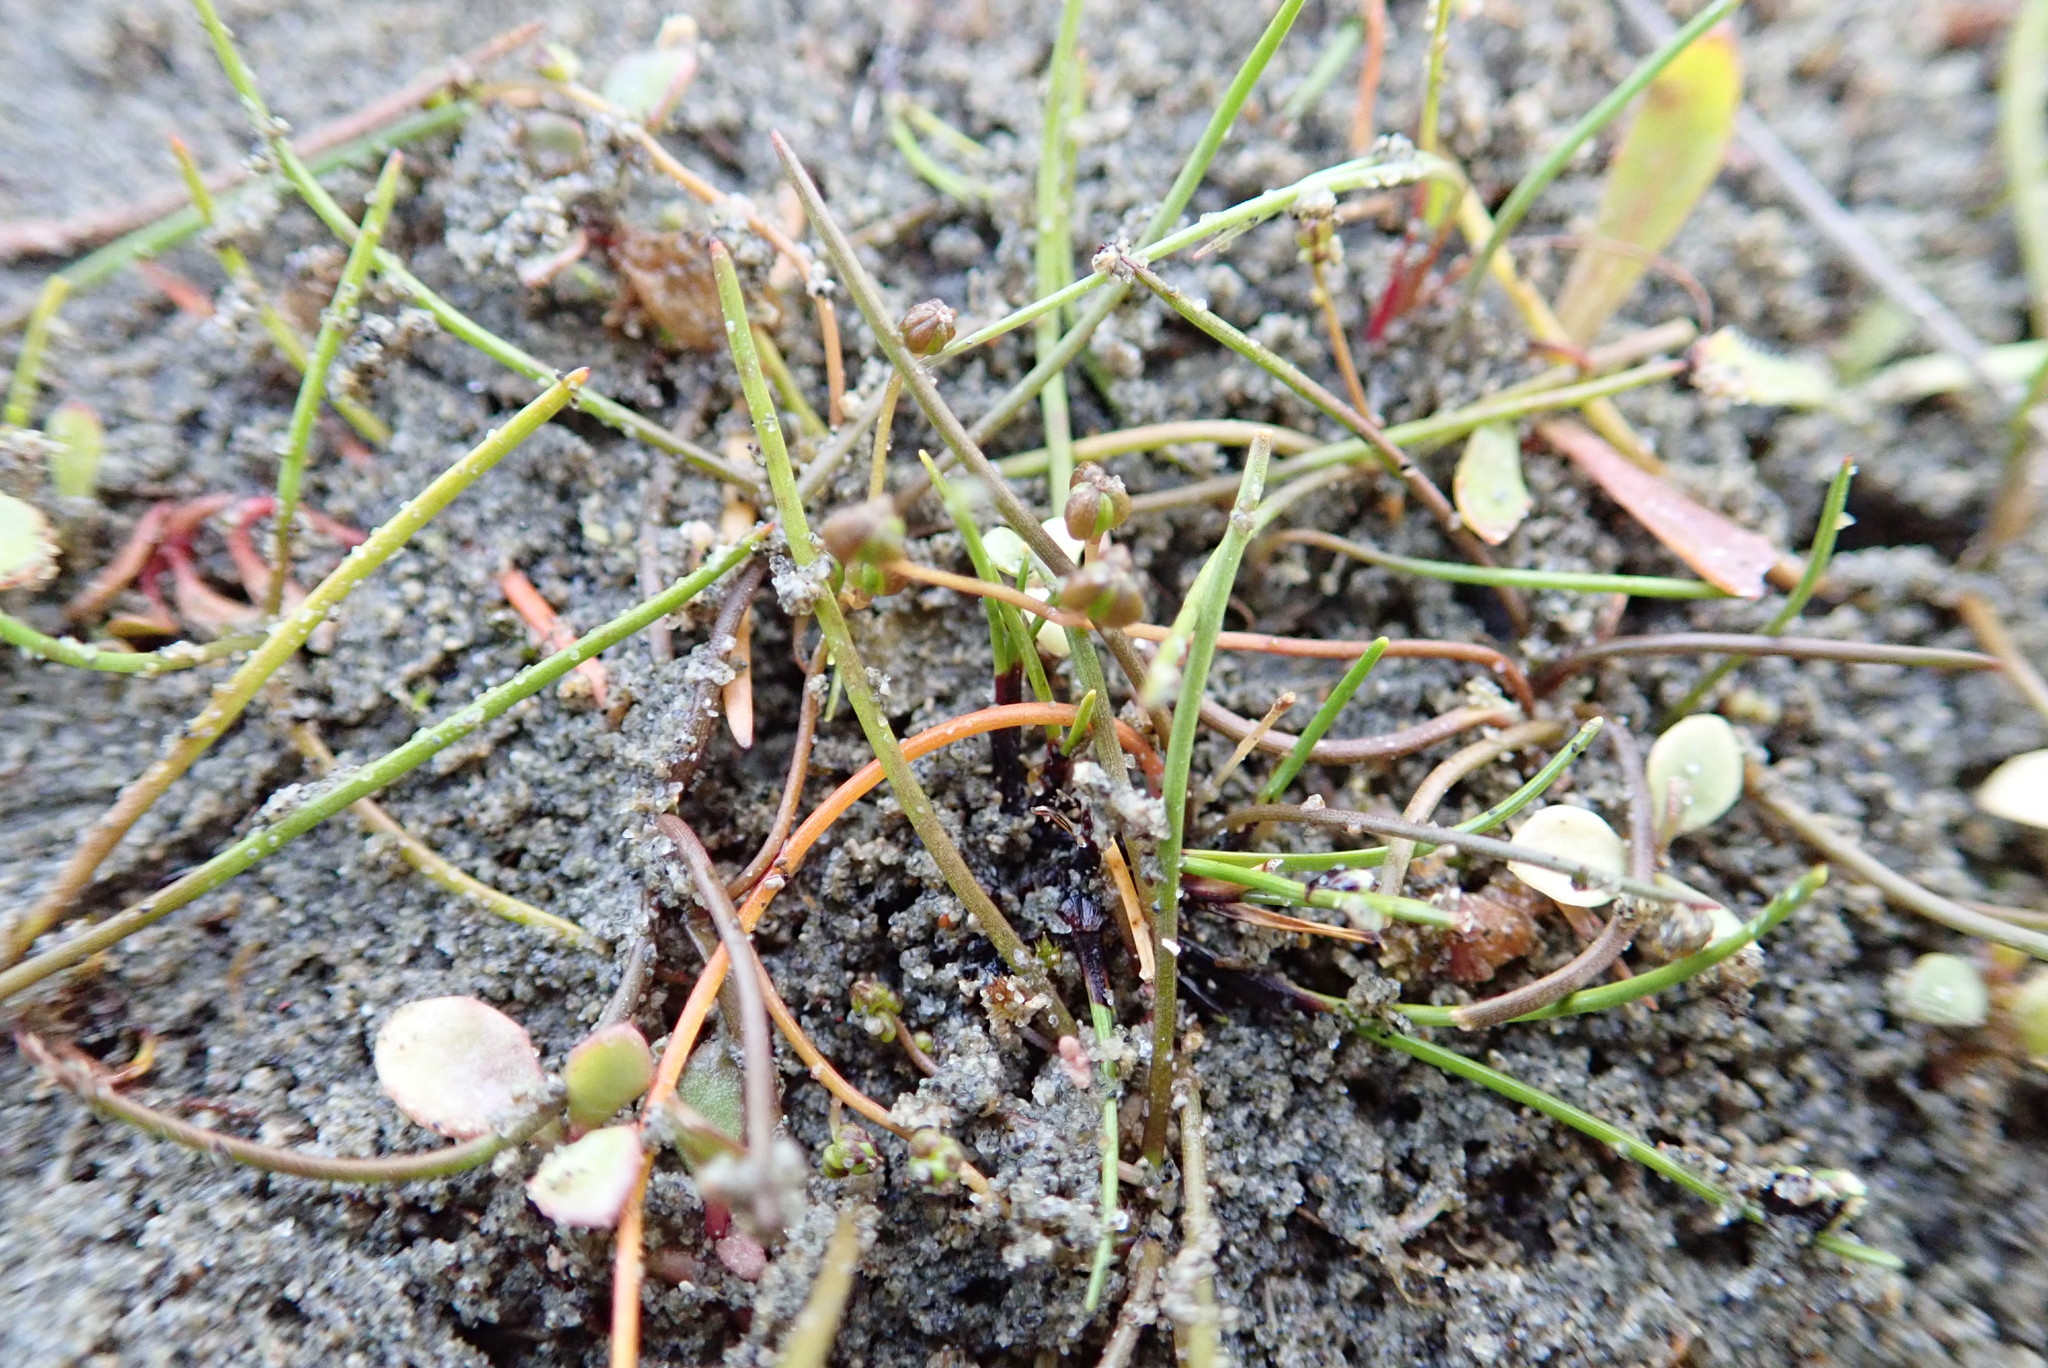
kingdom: Plantae
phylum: Tracheophyta
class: Liliopsida
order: Alismatales
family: Juncaginaceae
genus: Triglochin
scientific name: Triglochin striata
